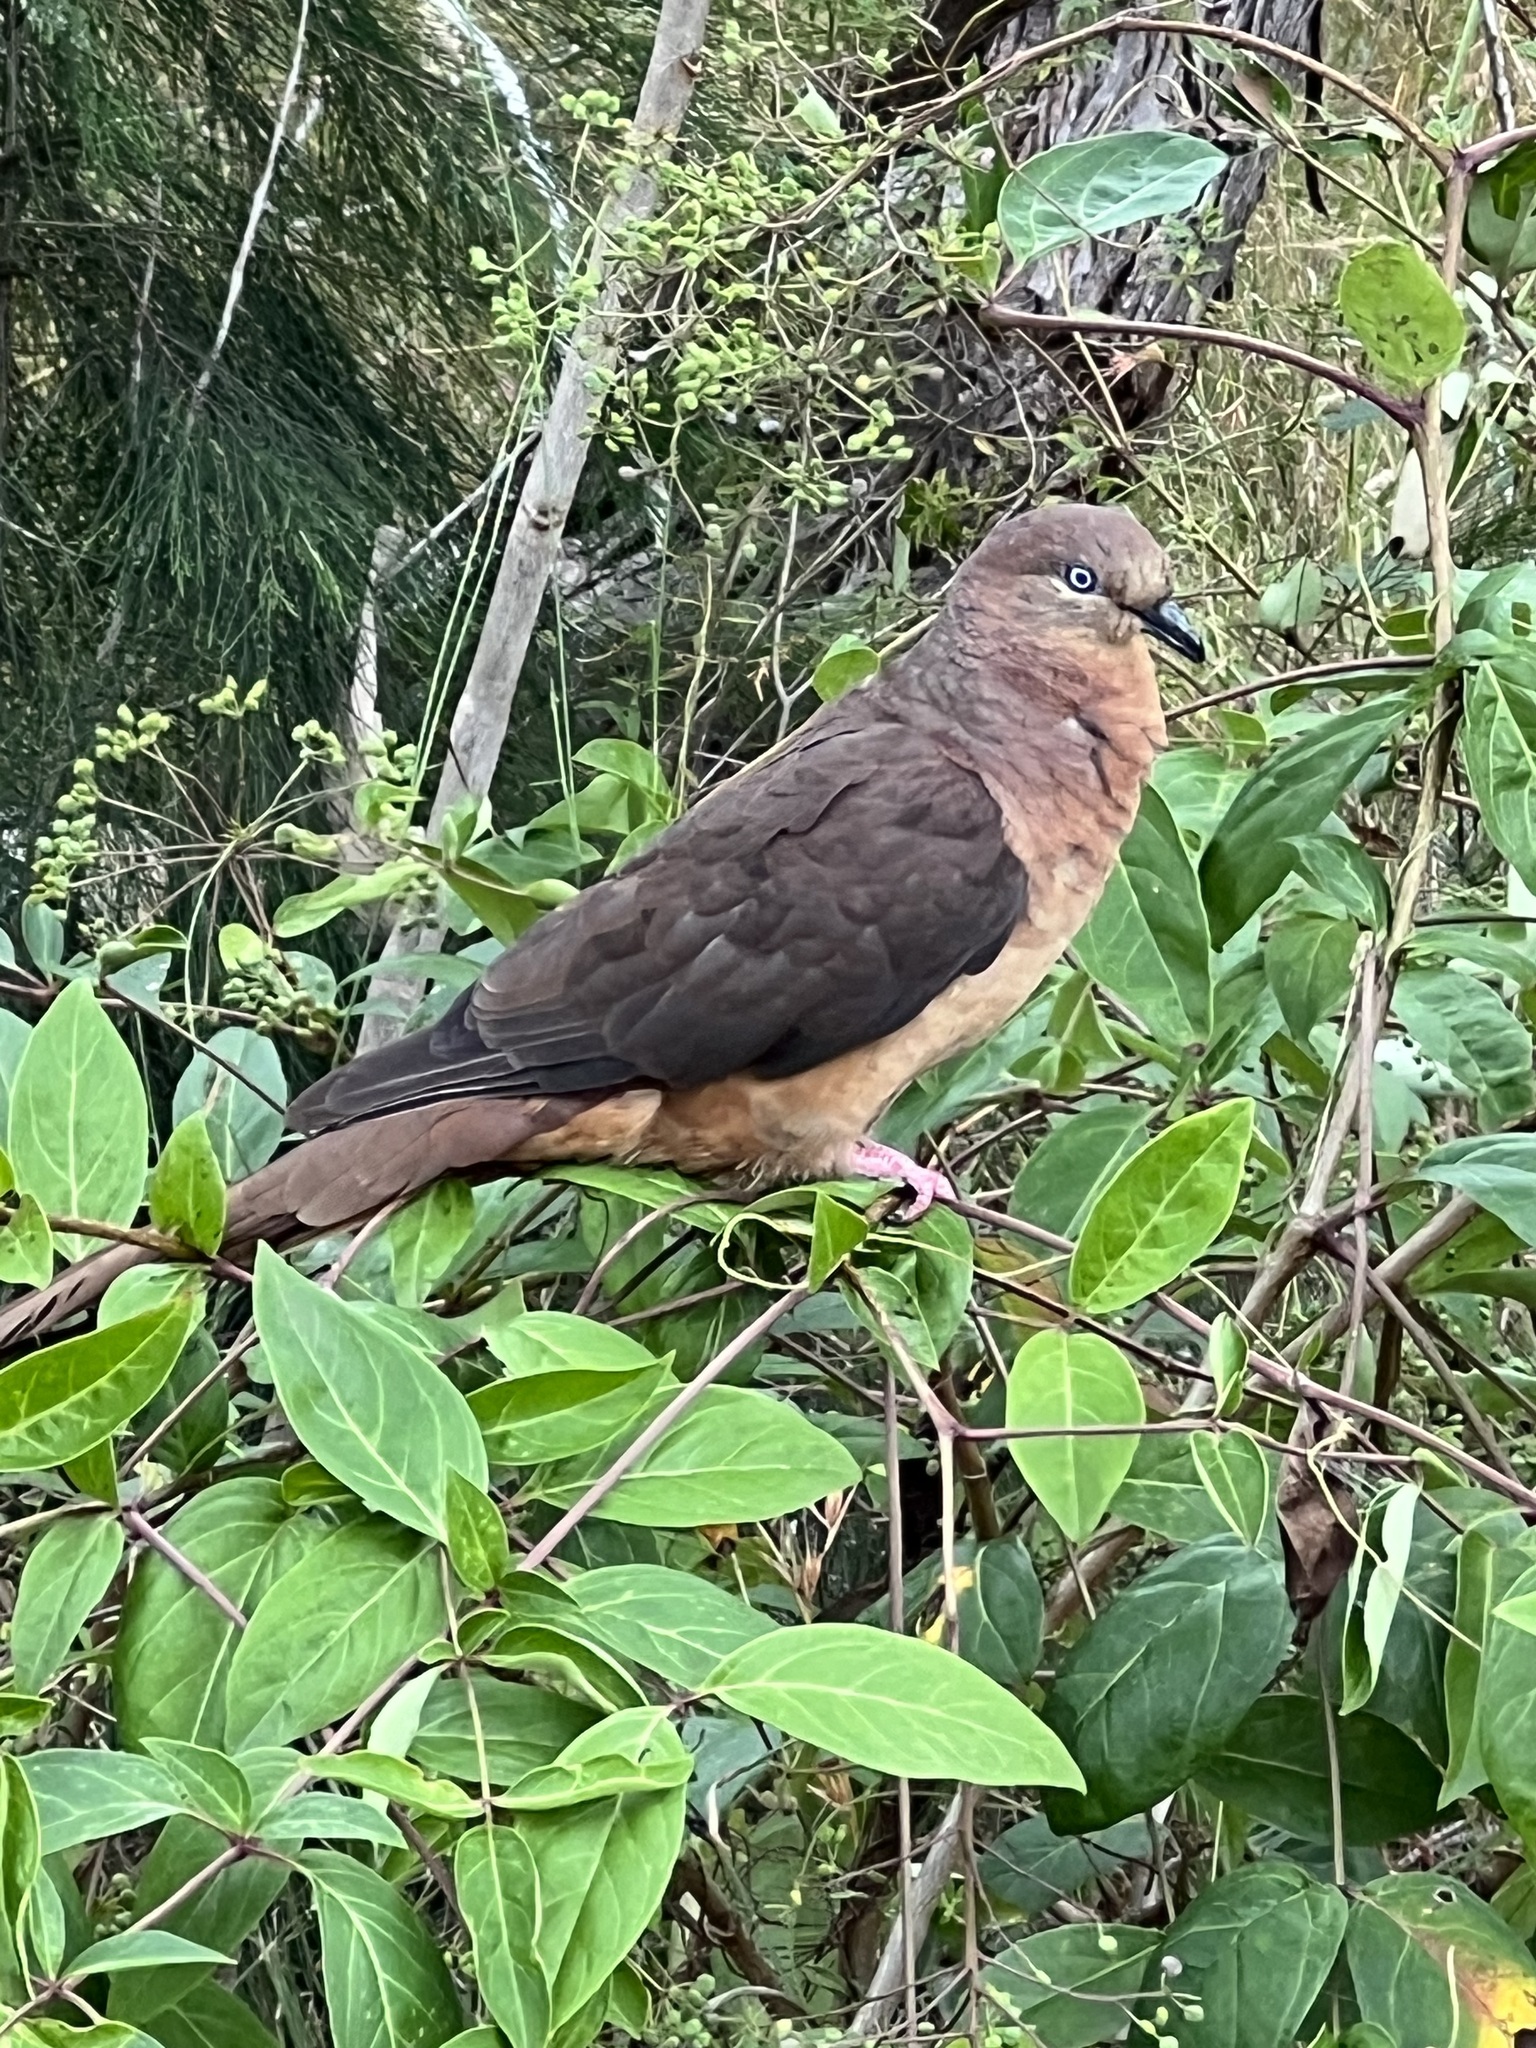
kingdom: Animalia
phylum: Chordata
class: Aves
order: Columbiformes
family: Columbidae
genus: Macropygia
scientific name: Macropygia phasianella
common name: Brown cuckoo-dove
